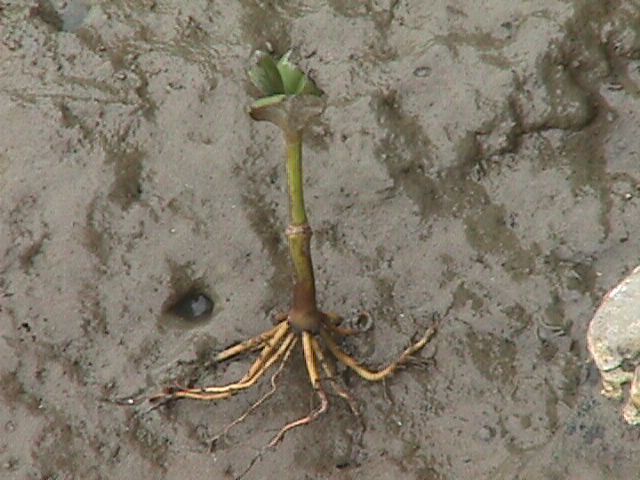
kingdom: Plantae
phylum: Tracheophyta
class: Magnoliopsida
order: Lamiales
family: Acanthaceae
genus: Avicennia
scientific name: Avicennia marina
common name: Gray mangrove
